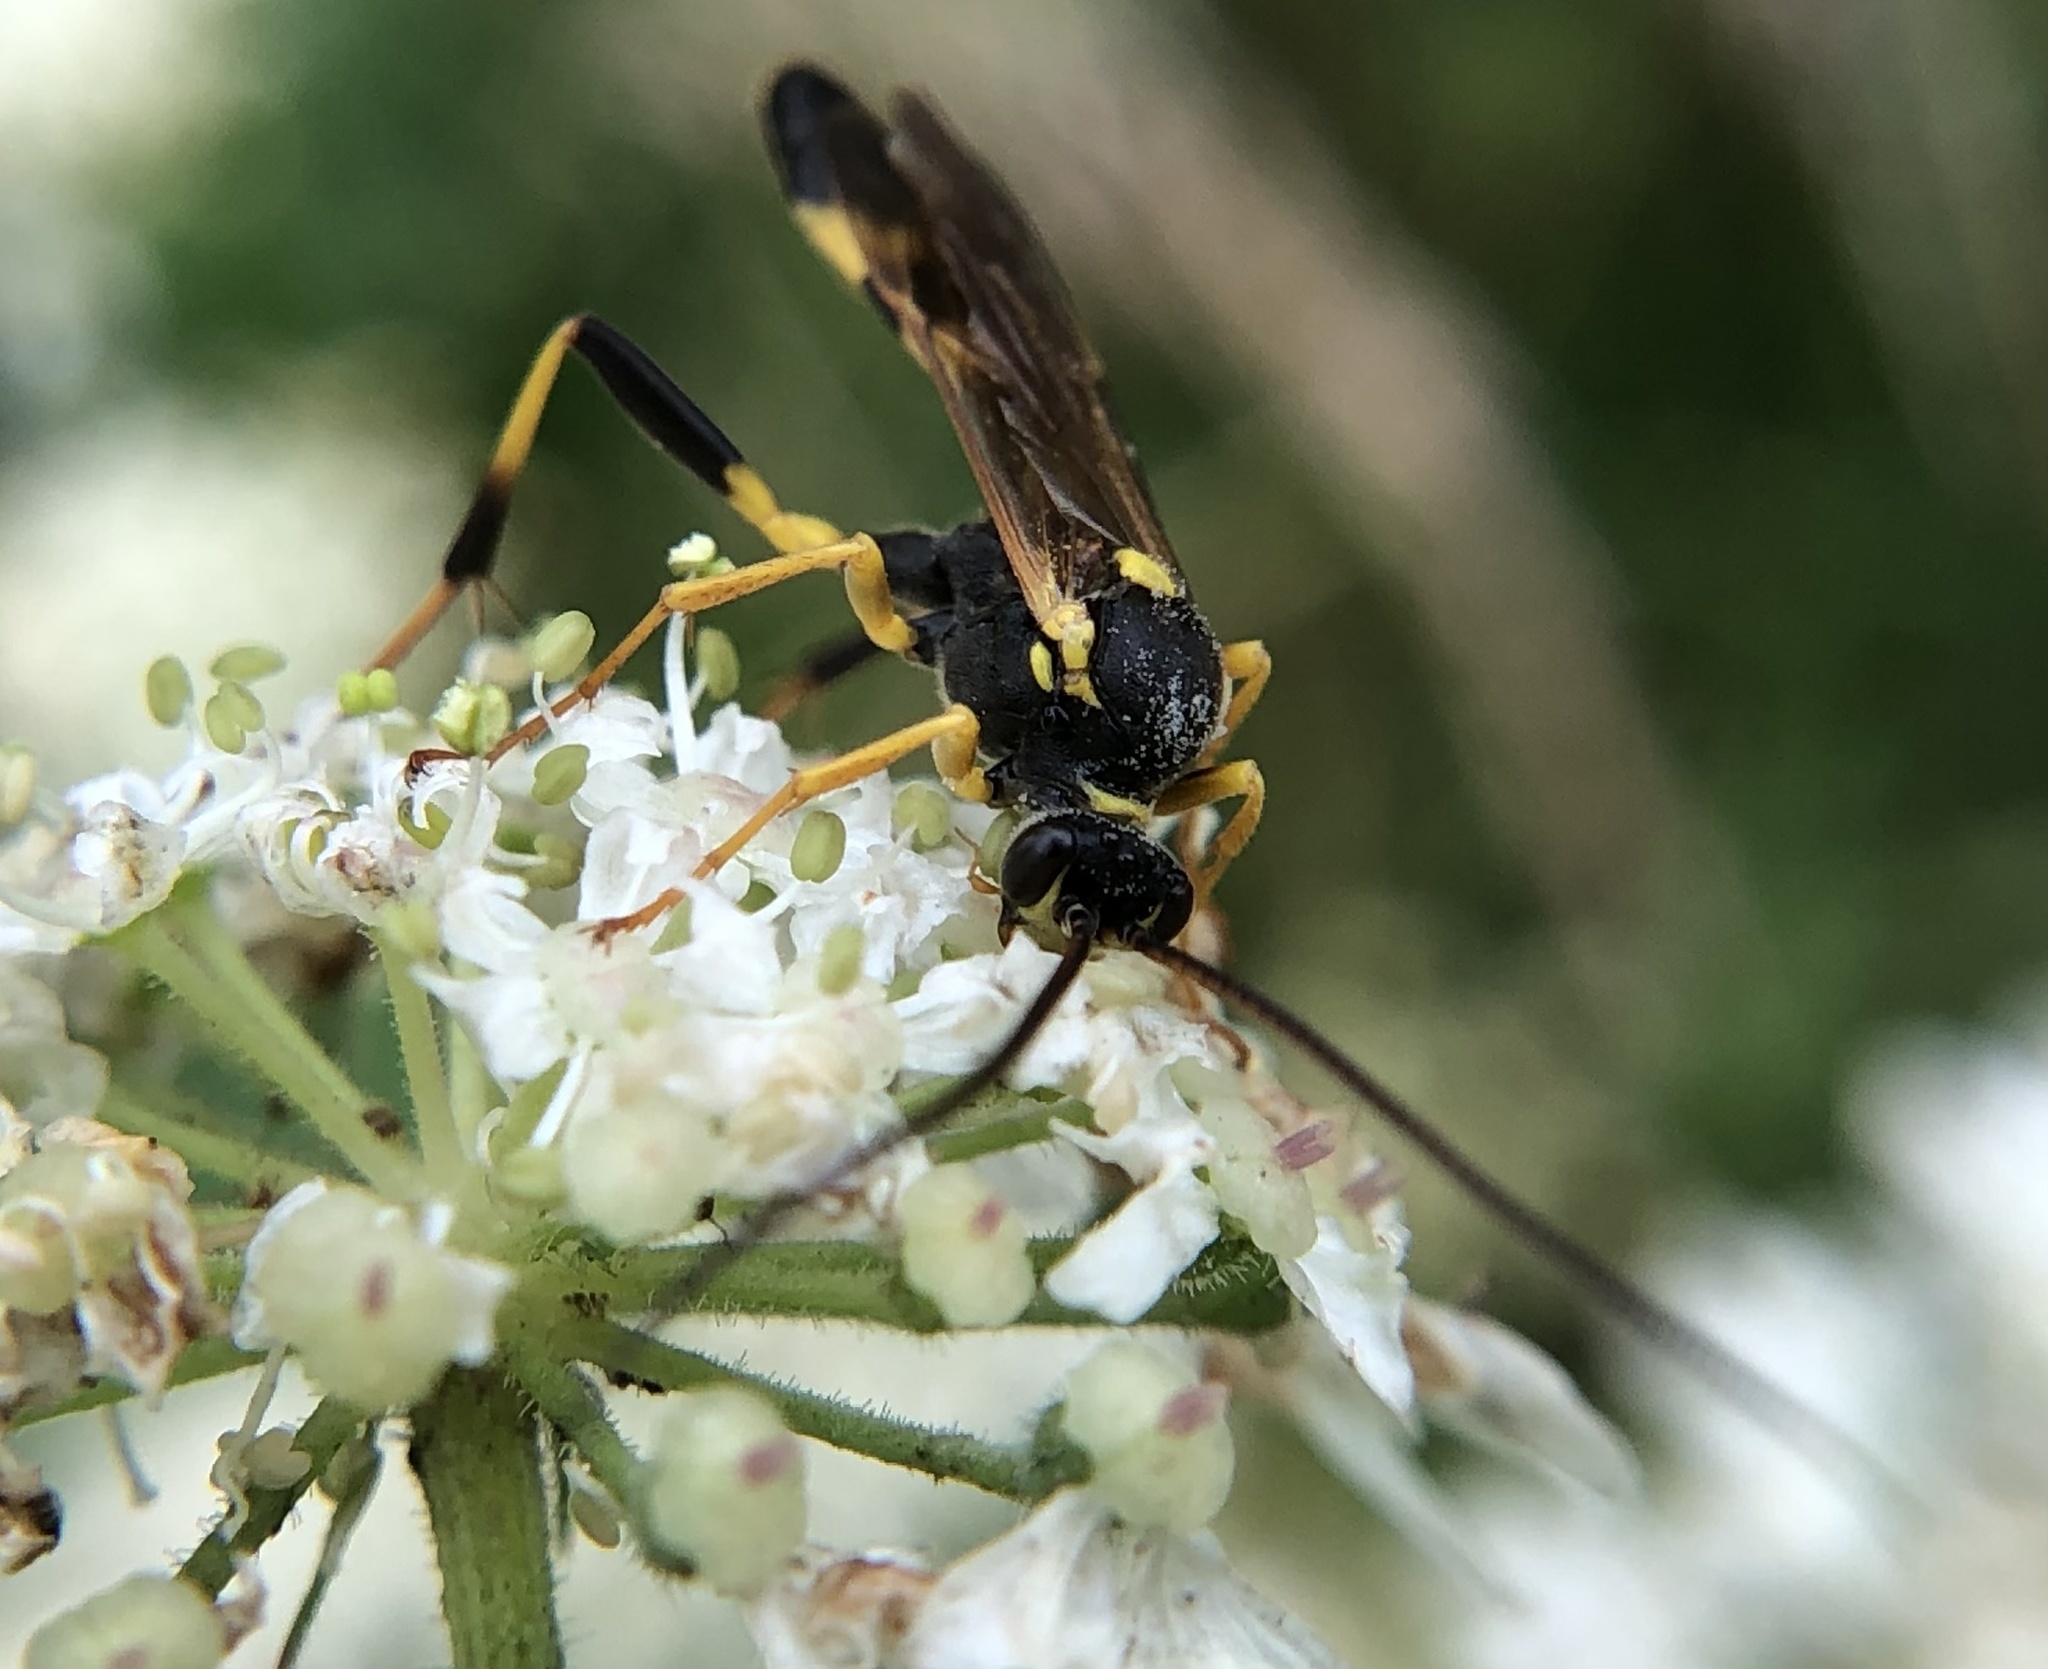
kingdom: Animalia
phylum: Arthropoda
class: Insecta
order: Hymenoptera
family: Ichneumonidae
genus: Amblyteles
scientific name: Amblyteles armatorius
